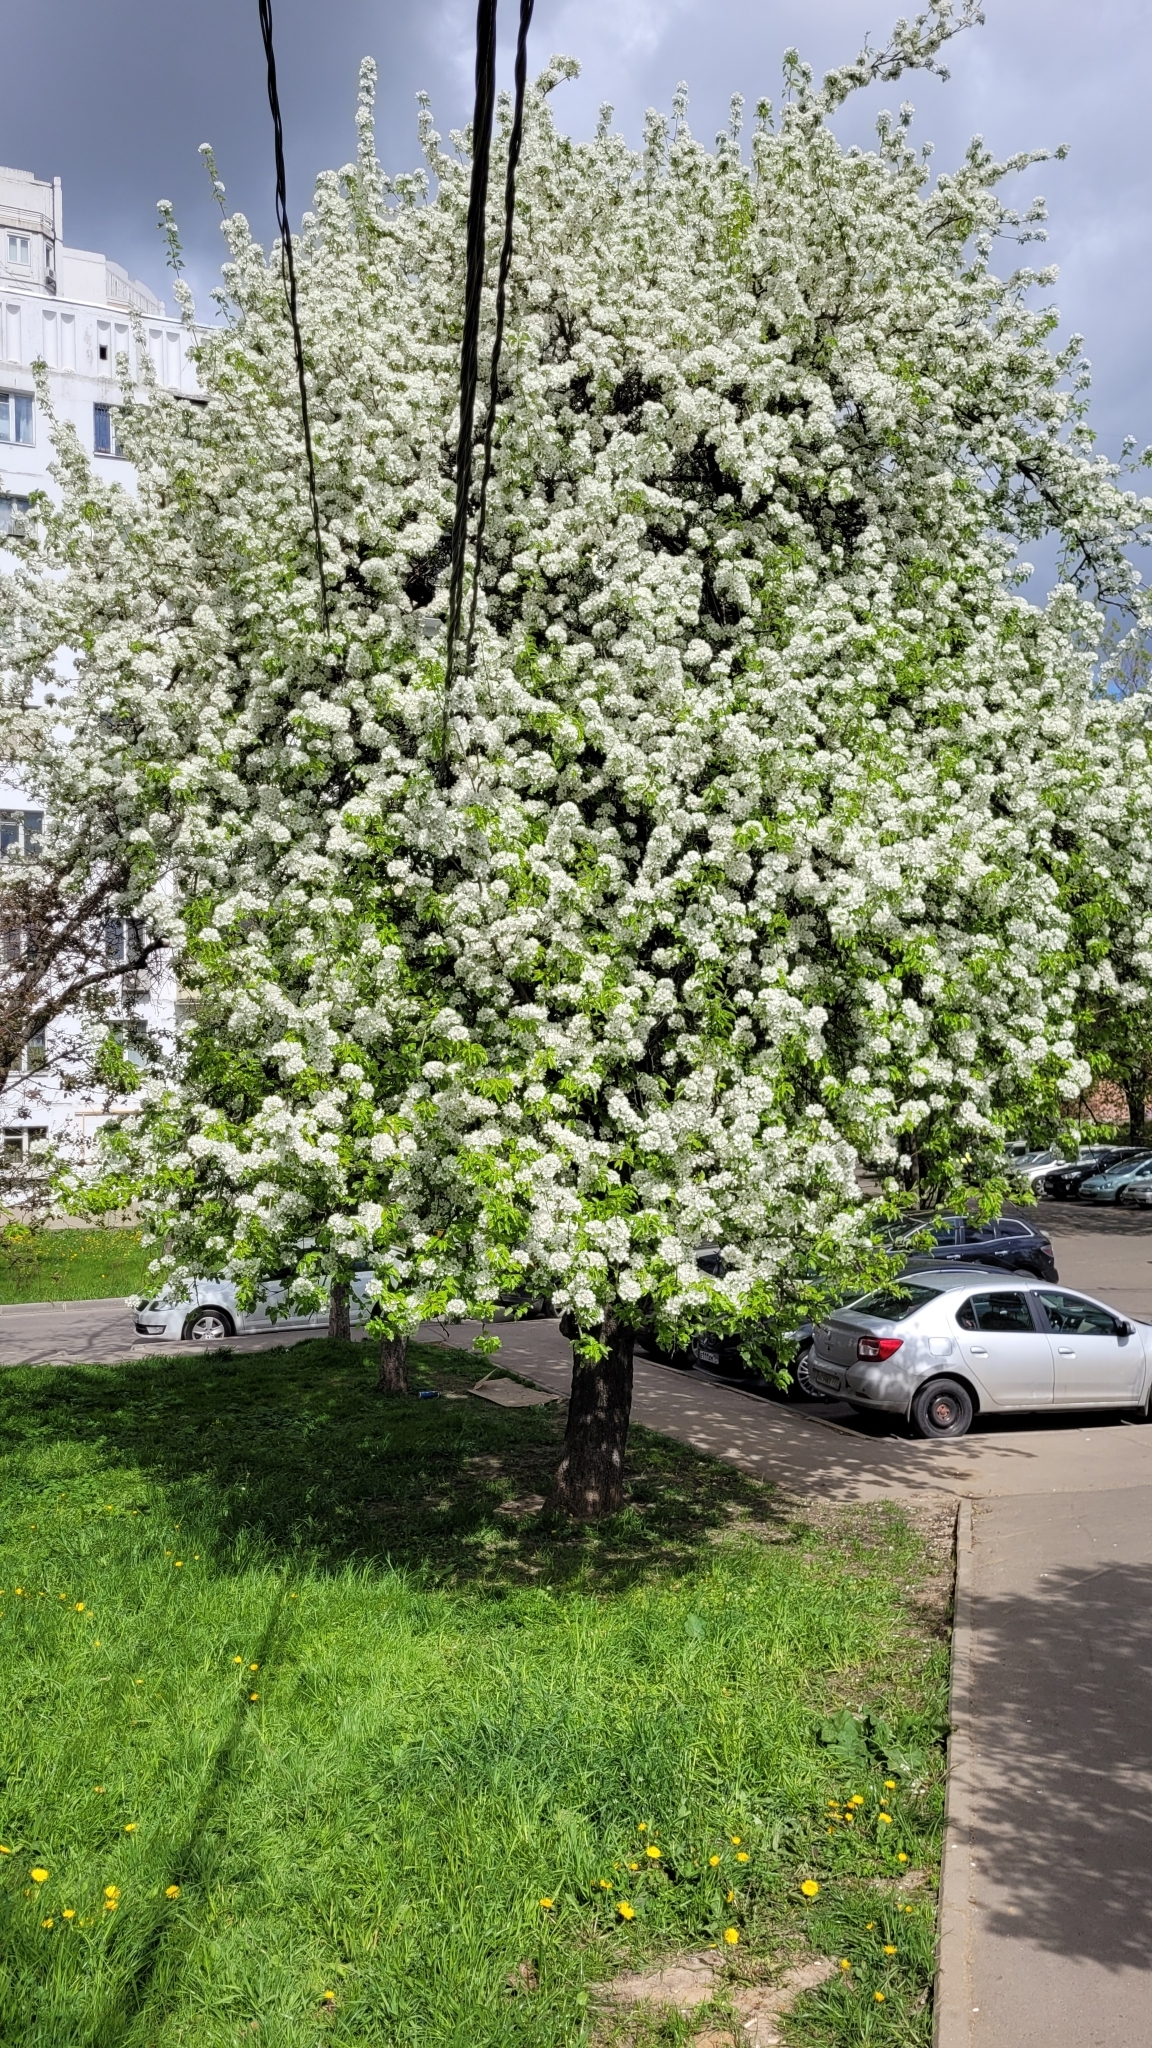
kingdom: Plantae
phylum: Tracheophyta
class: Magnoliopsida
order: Rosales
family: Rosaceae
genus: Pyrus
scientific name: Pyrus communis
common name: Pear
